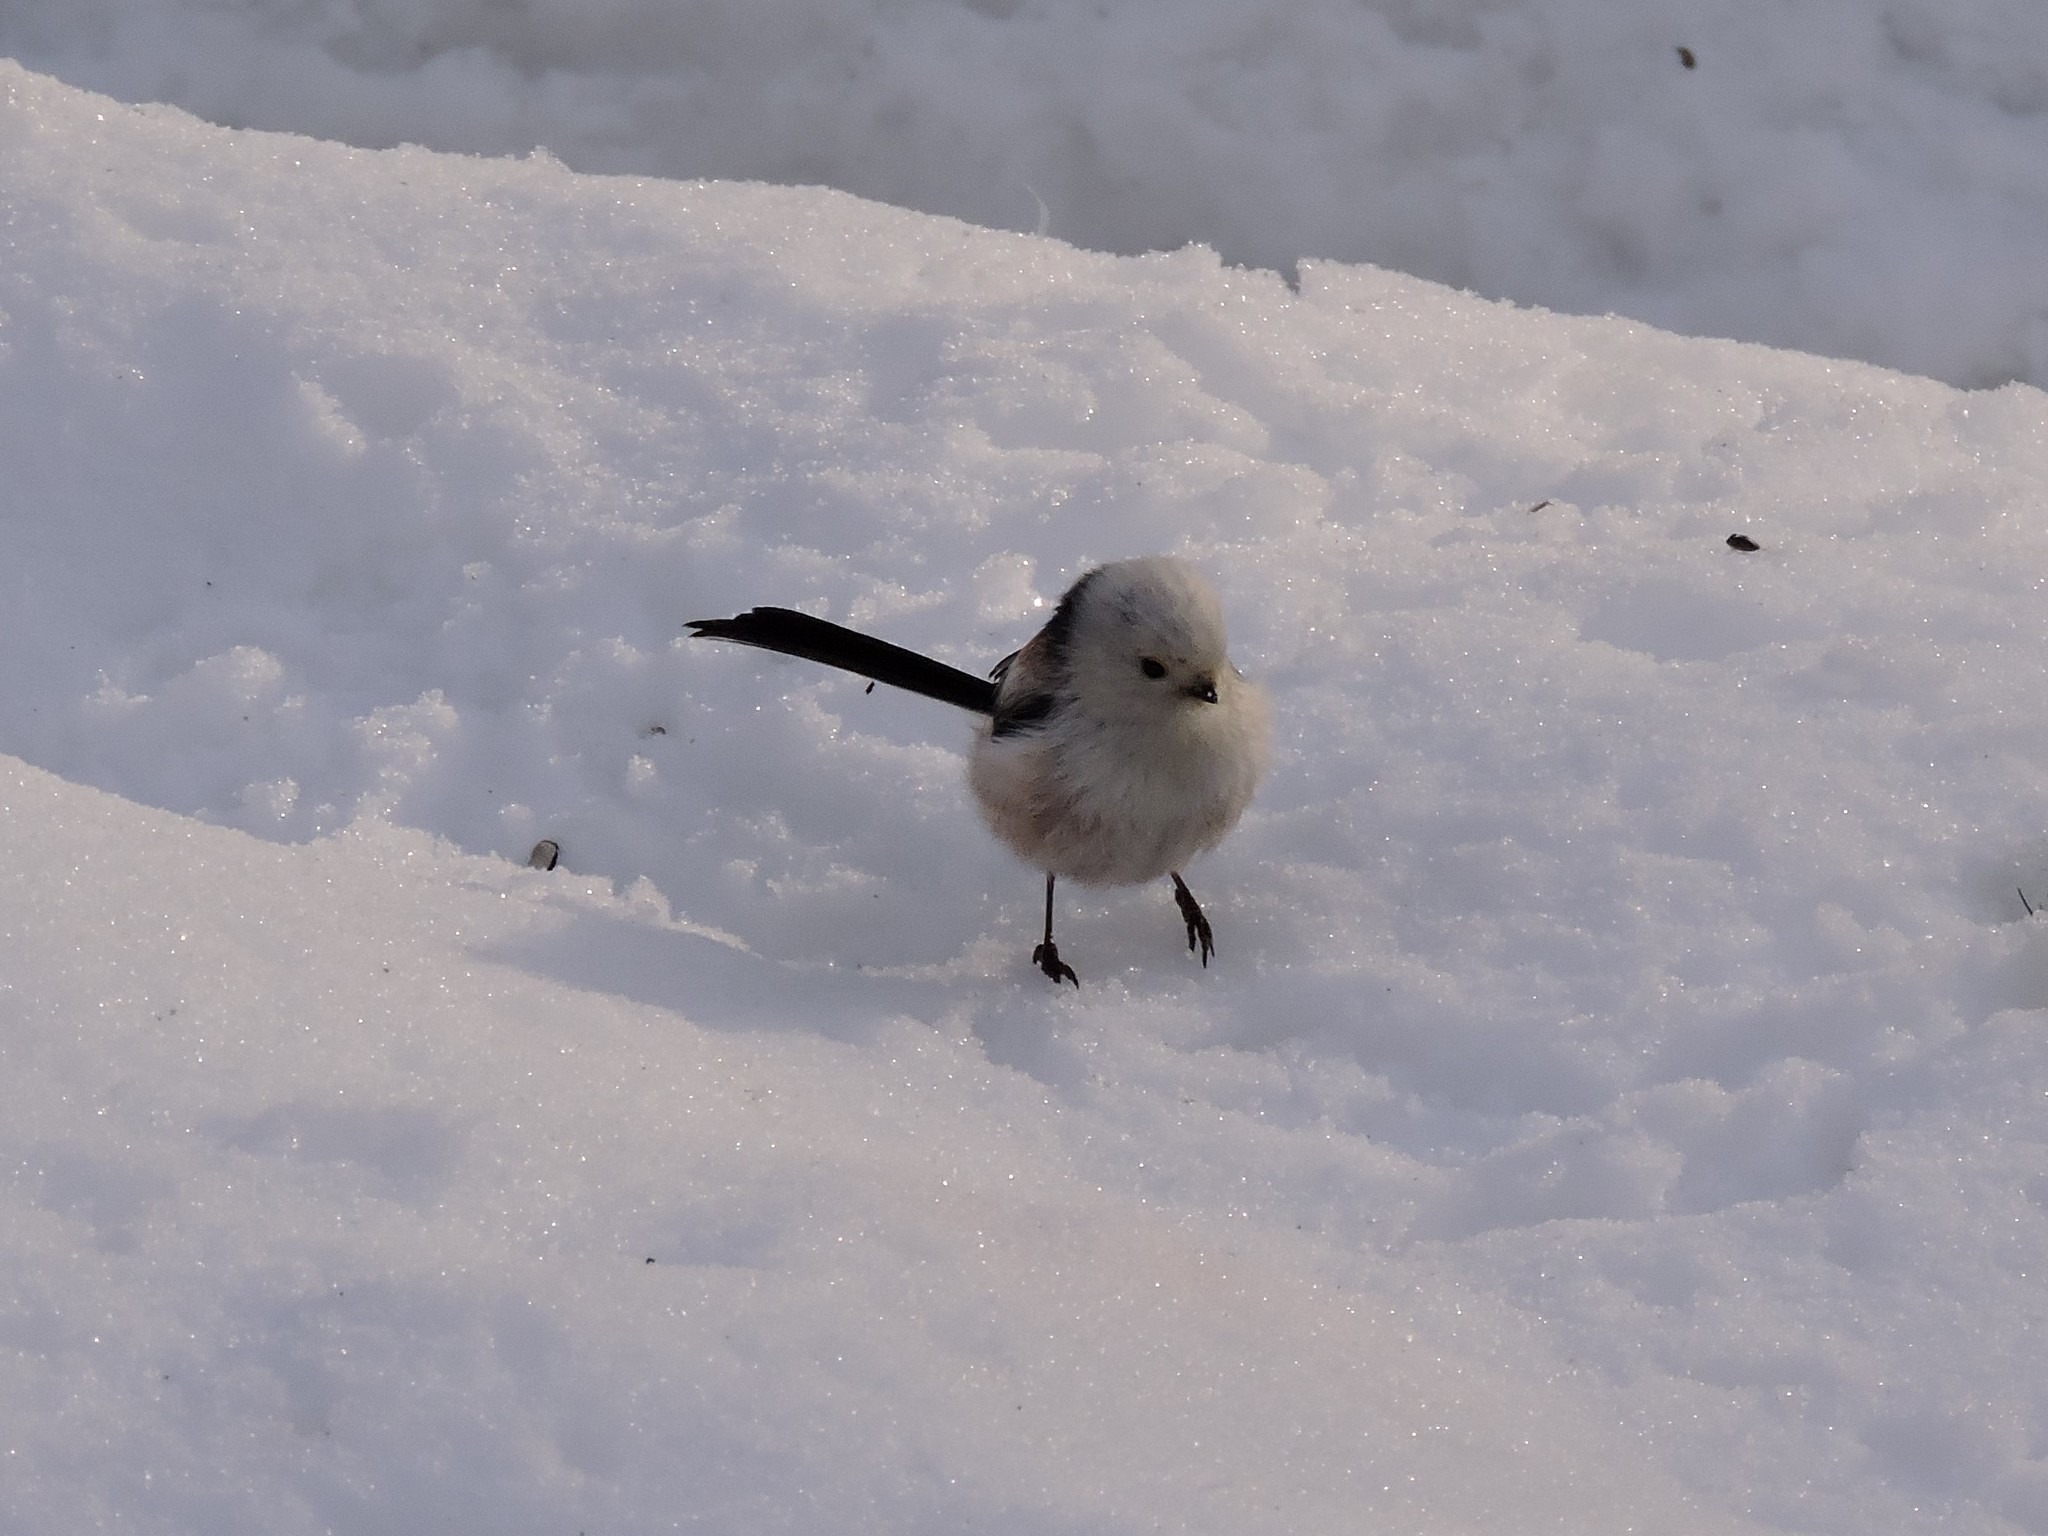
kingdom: Animalia
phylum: Chordata
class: Aves
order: Passeriformes
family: Aegithalidae
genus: Aegithalos
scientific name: Aegithalos caudatus
